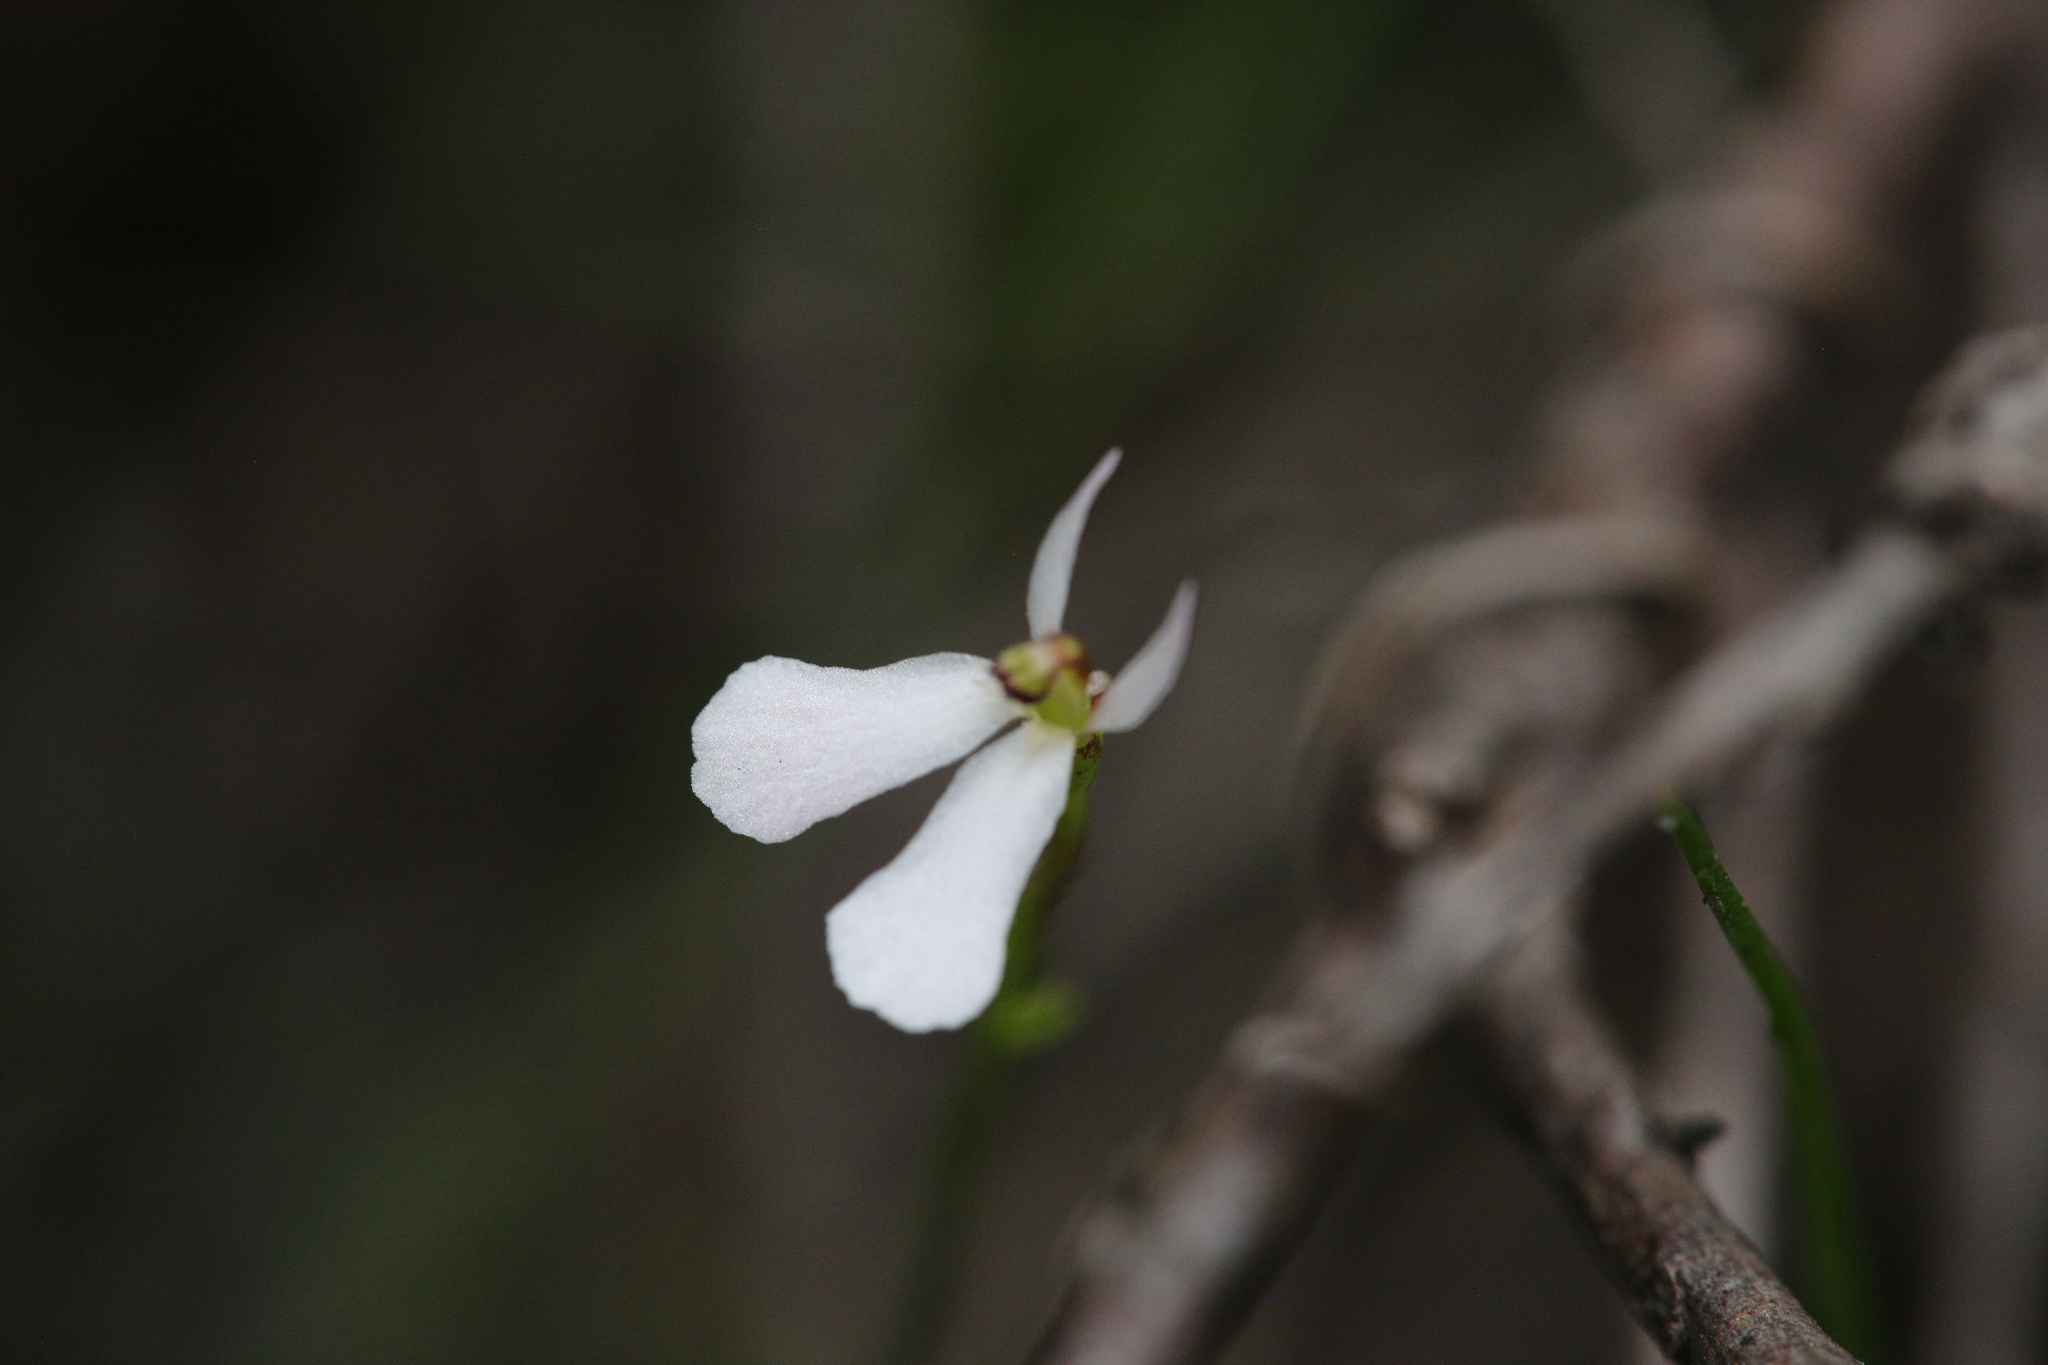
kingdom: Plantae
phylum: Tracheophyta
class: Magnoliopsida
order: Asterales
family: Stylidiaceae
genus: Stylidium
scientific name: Stylidium obtusatum
